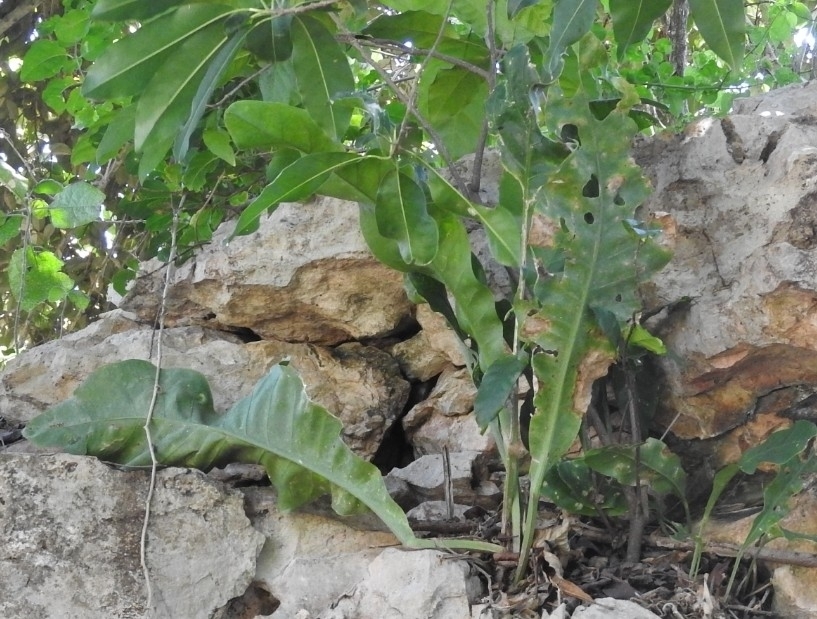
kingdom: Plantae
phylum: Tracheophyta
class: Liliopsida
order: Alismatales
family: Araceae
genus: Anthurium
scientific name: Anthurium schlechtendalii
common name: Laceleaf
